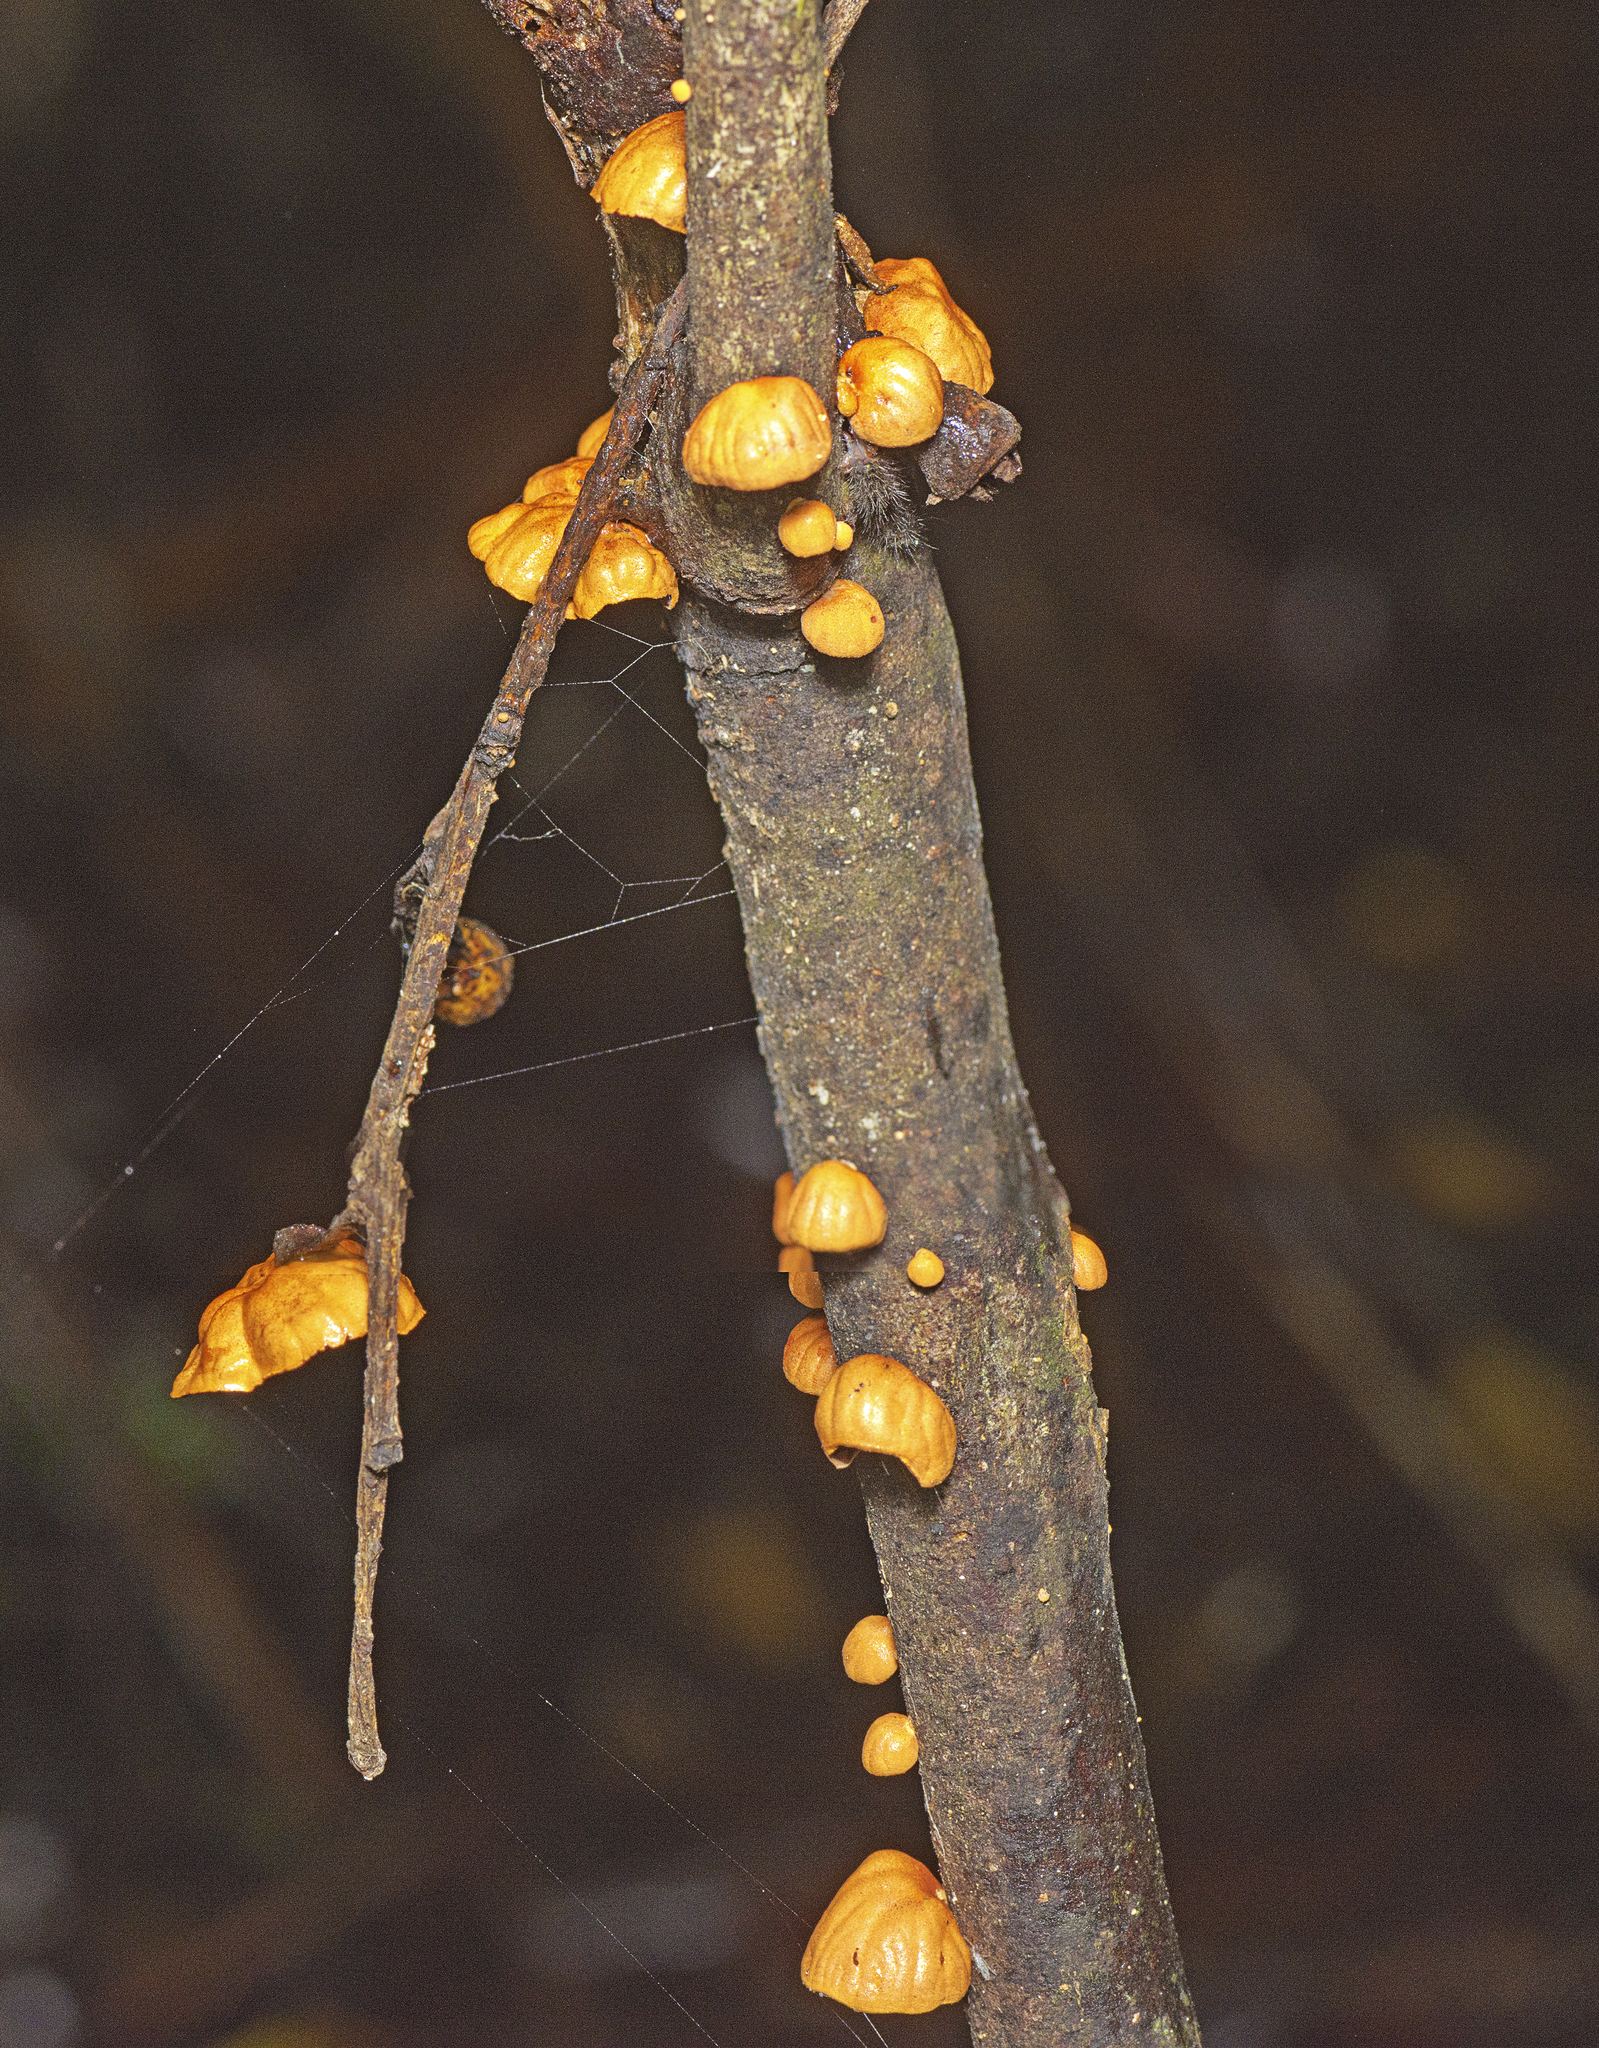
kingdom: Fungi
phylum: Basidiomycota
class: Agaricomycetes
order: Agaricales
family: Omphalotaceae
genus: Anthracophyllum
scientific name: Anthracophyllum archeri
